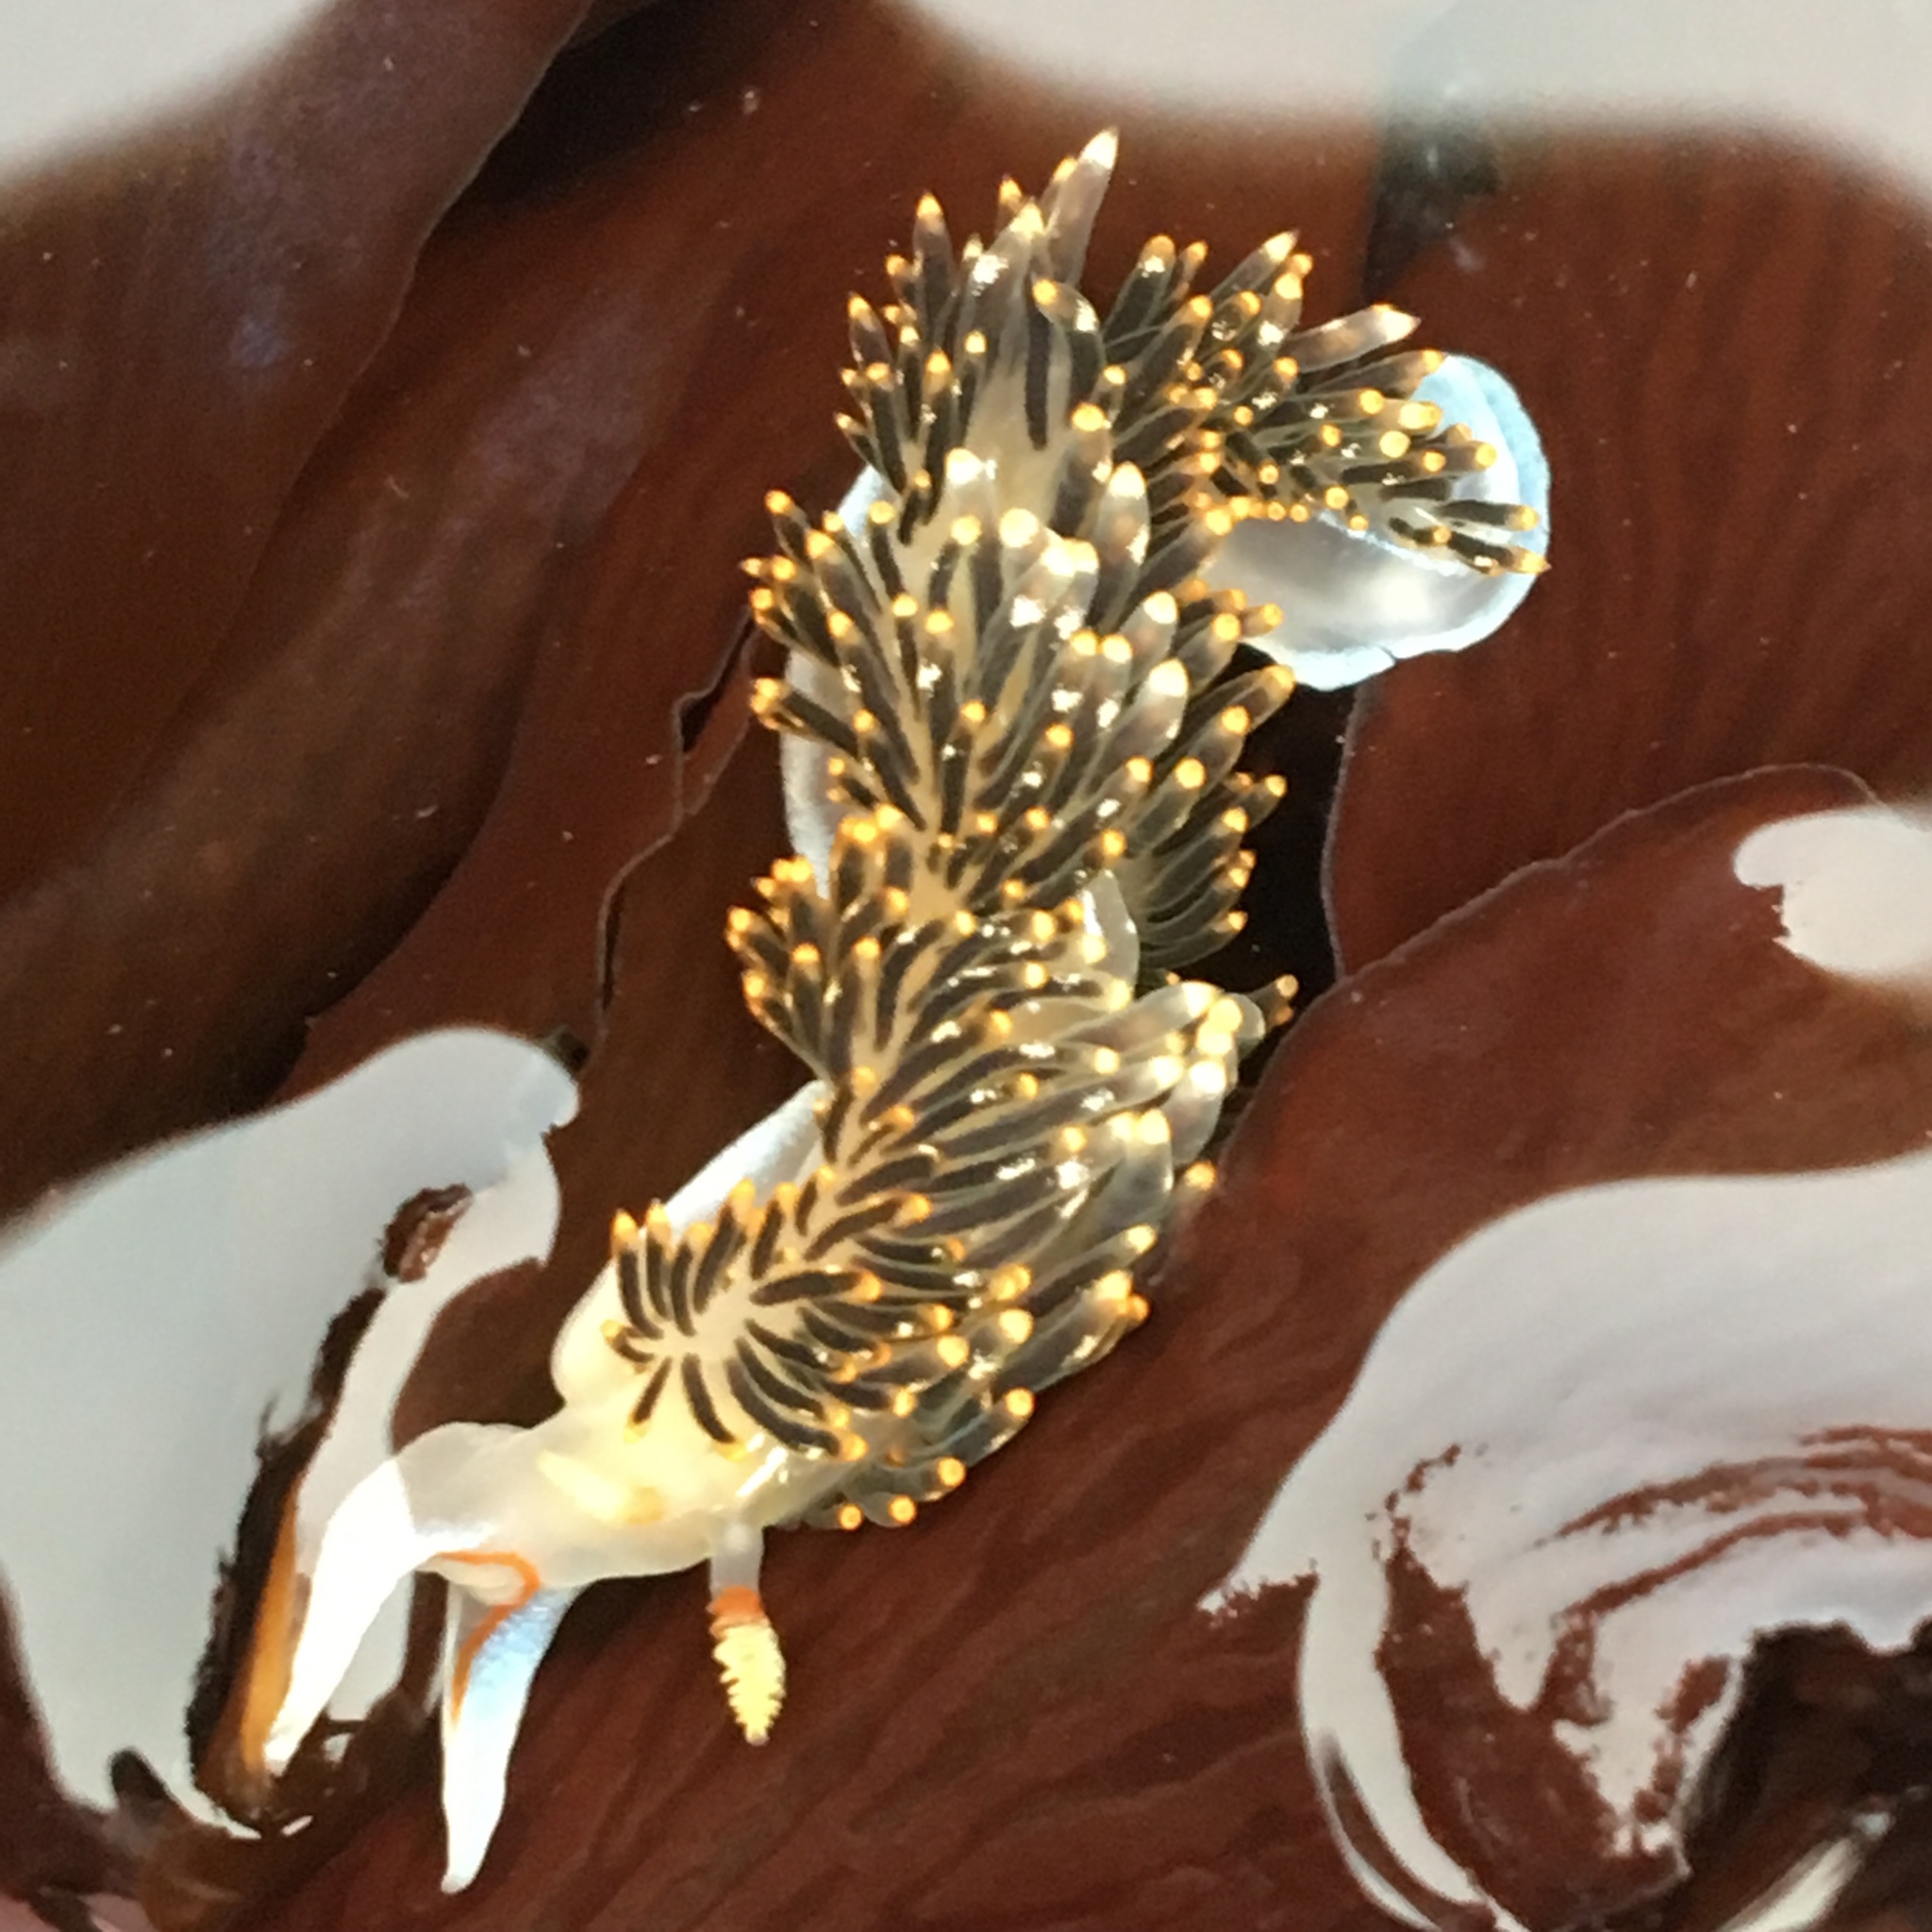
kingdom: Animalia
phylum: Mollusca
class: Gastropoda
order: Nudibranchia
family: Facelinidae
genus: Phidiana
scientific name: Phidiana hiltoni
